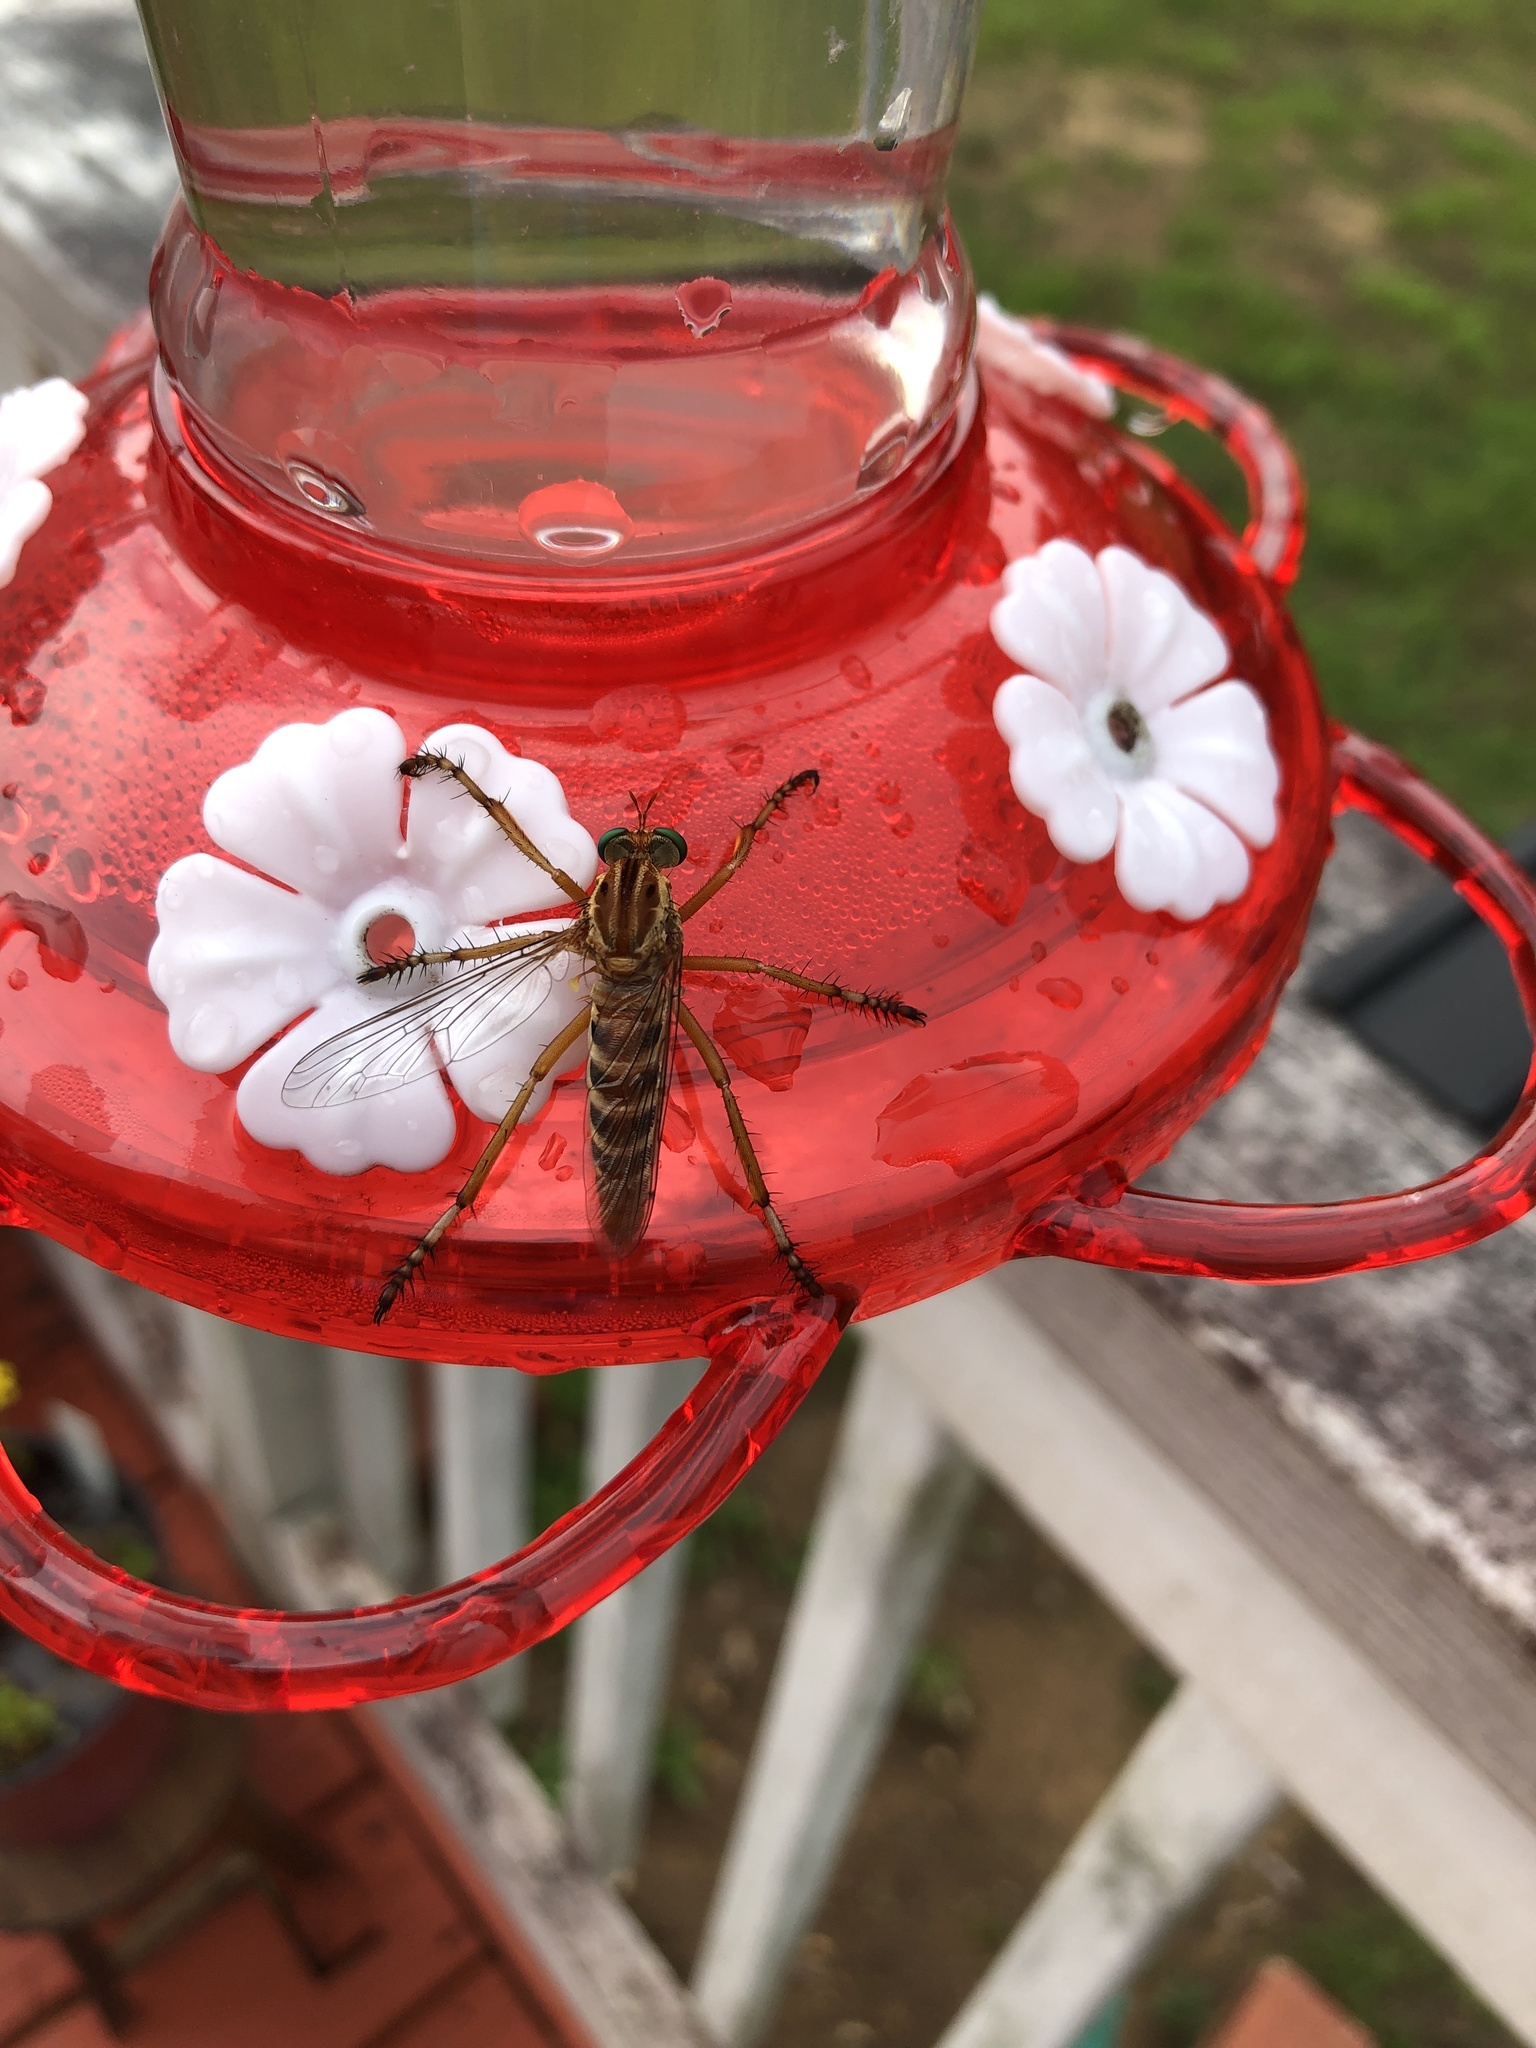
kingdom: Animalia
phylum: Arthropoda
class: Insecta
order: Diptera
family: Asilidae
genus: Diogmites
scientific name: Diogmites crudelis
